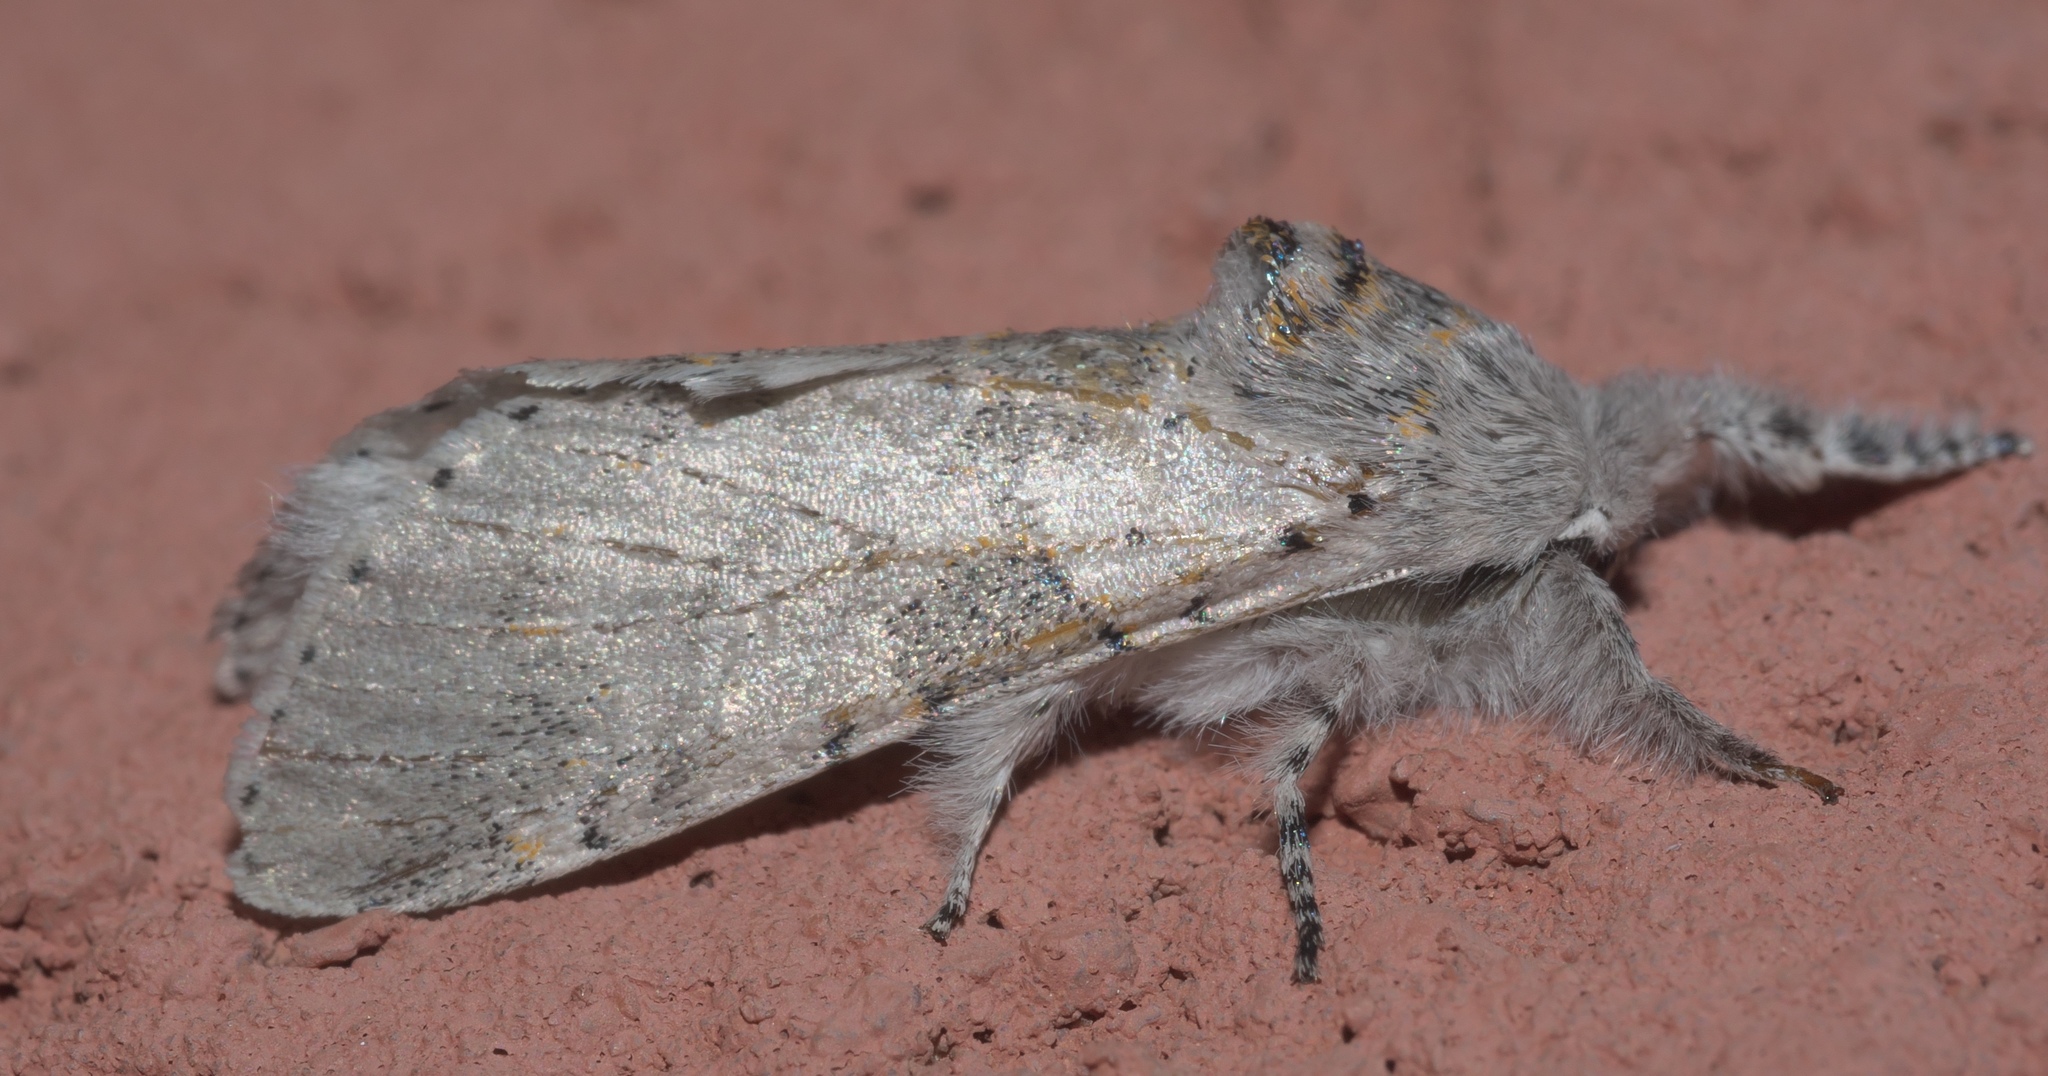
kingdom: Animalia
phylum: Arthropoda
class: Insecta
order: Lepidoptera
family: Notodontidae
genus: Furcula
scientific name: Furcula cinerea
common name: Gray furcula
